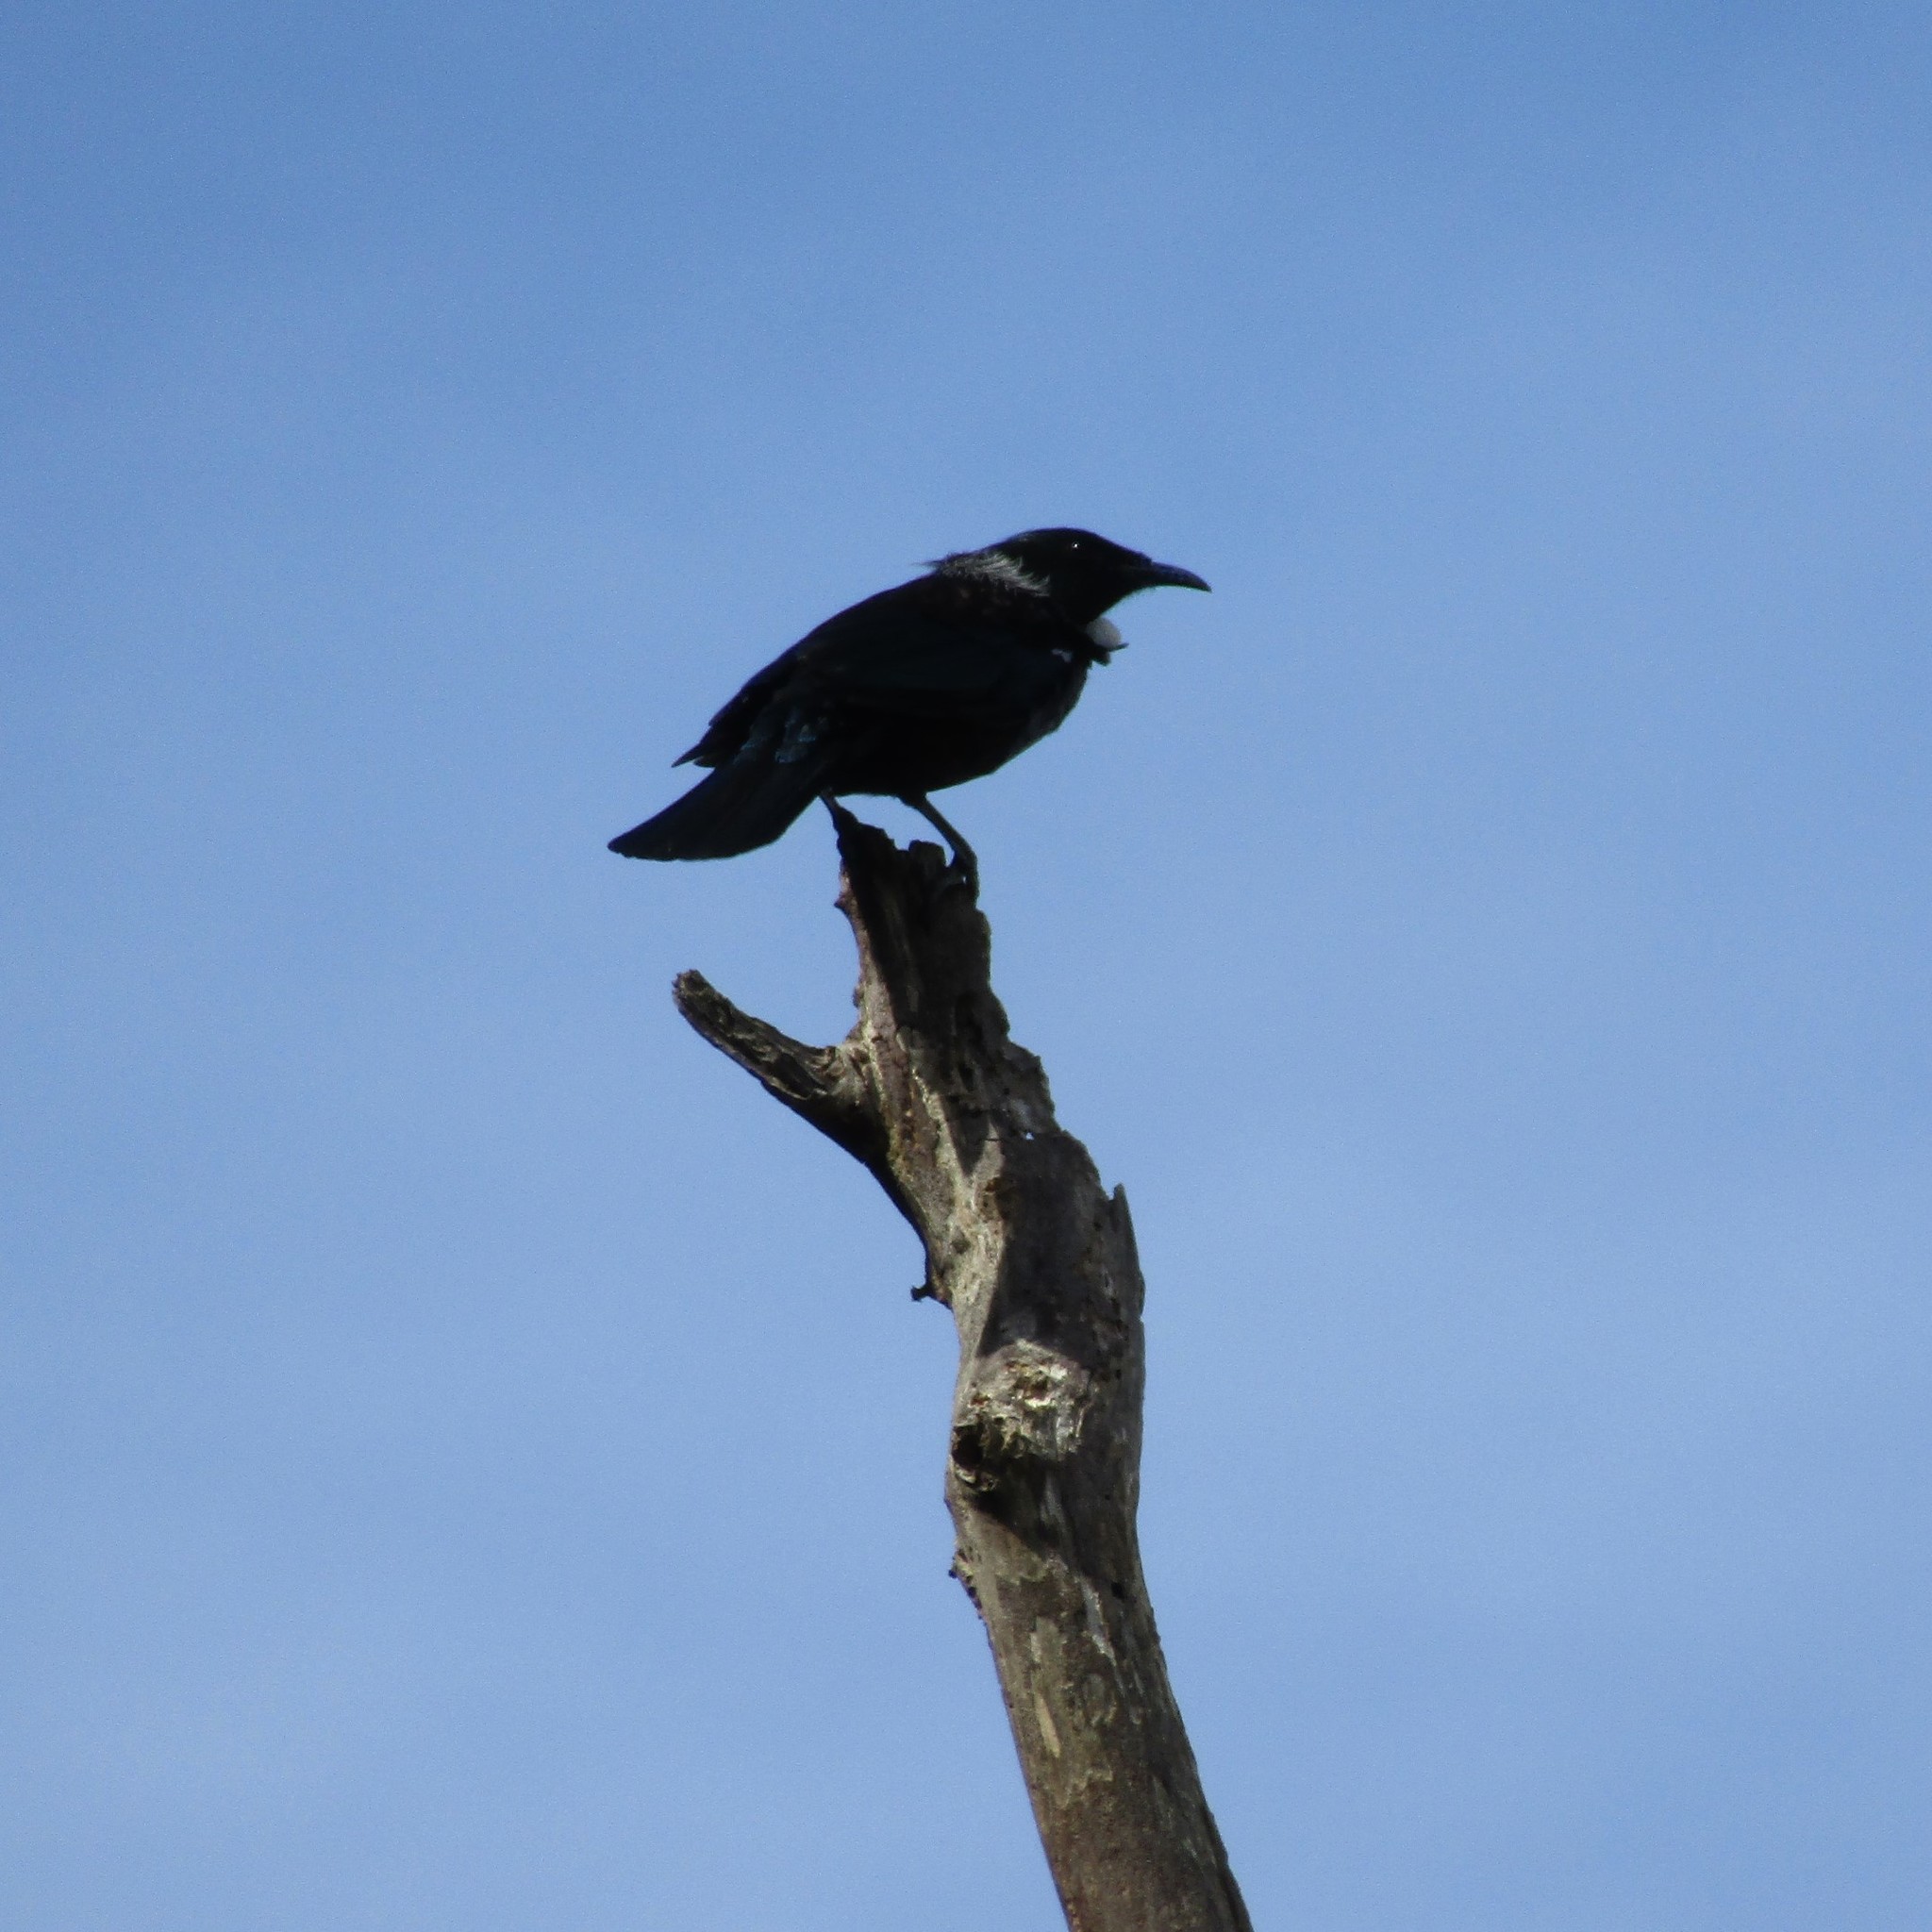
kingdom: Animalia
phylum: Chordata
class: Aves
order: Passeriformes
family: Meliphagidae
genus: Prosthemadera
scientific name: Prosthemadera novaeseelandiae
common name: Tui
